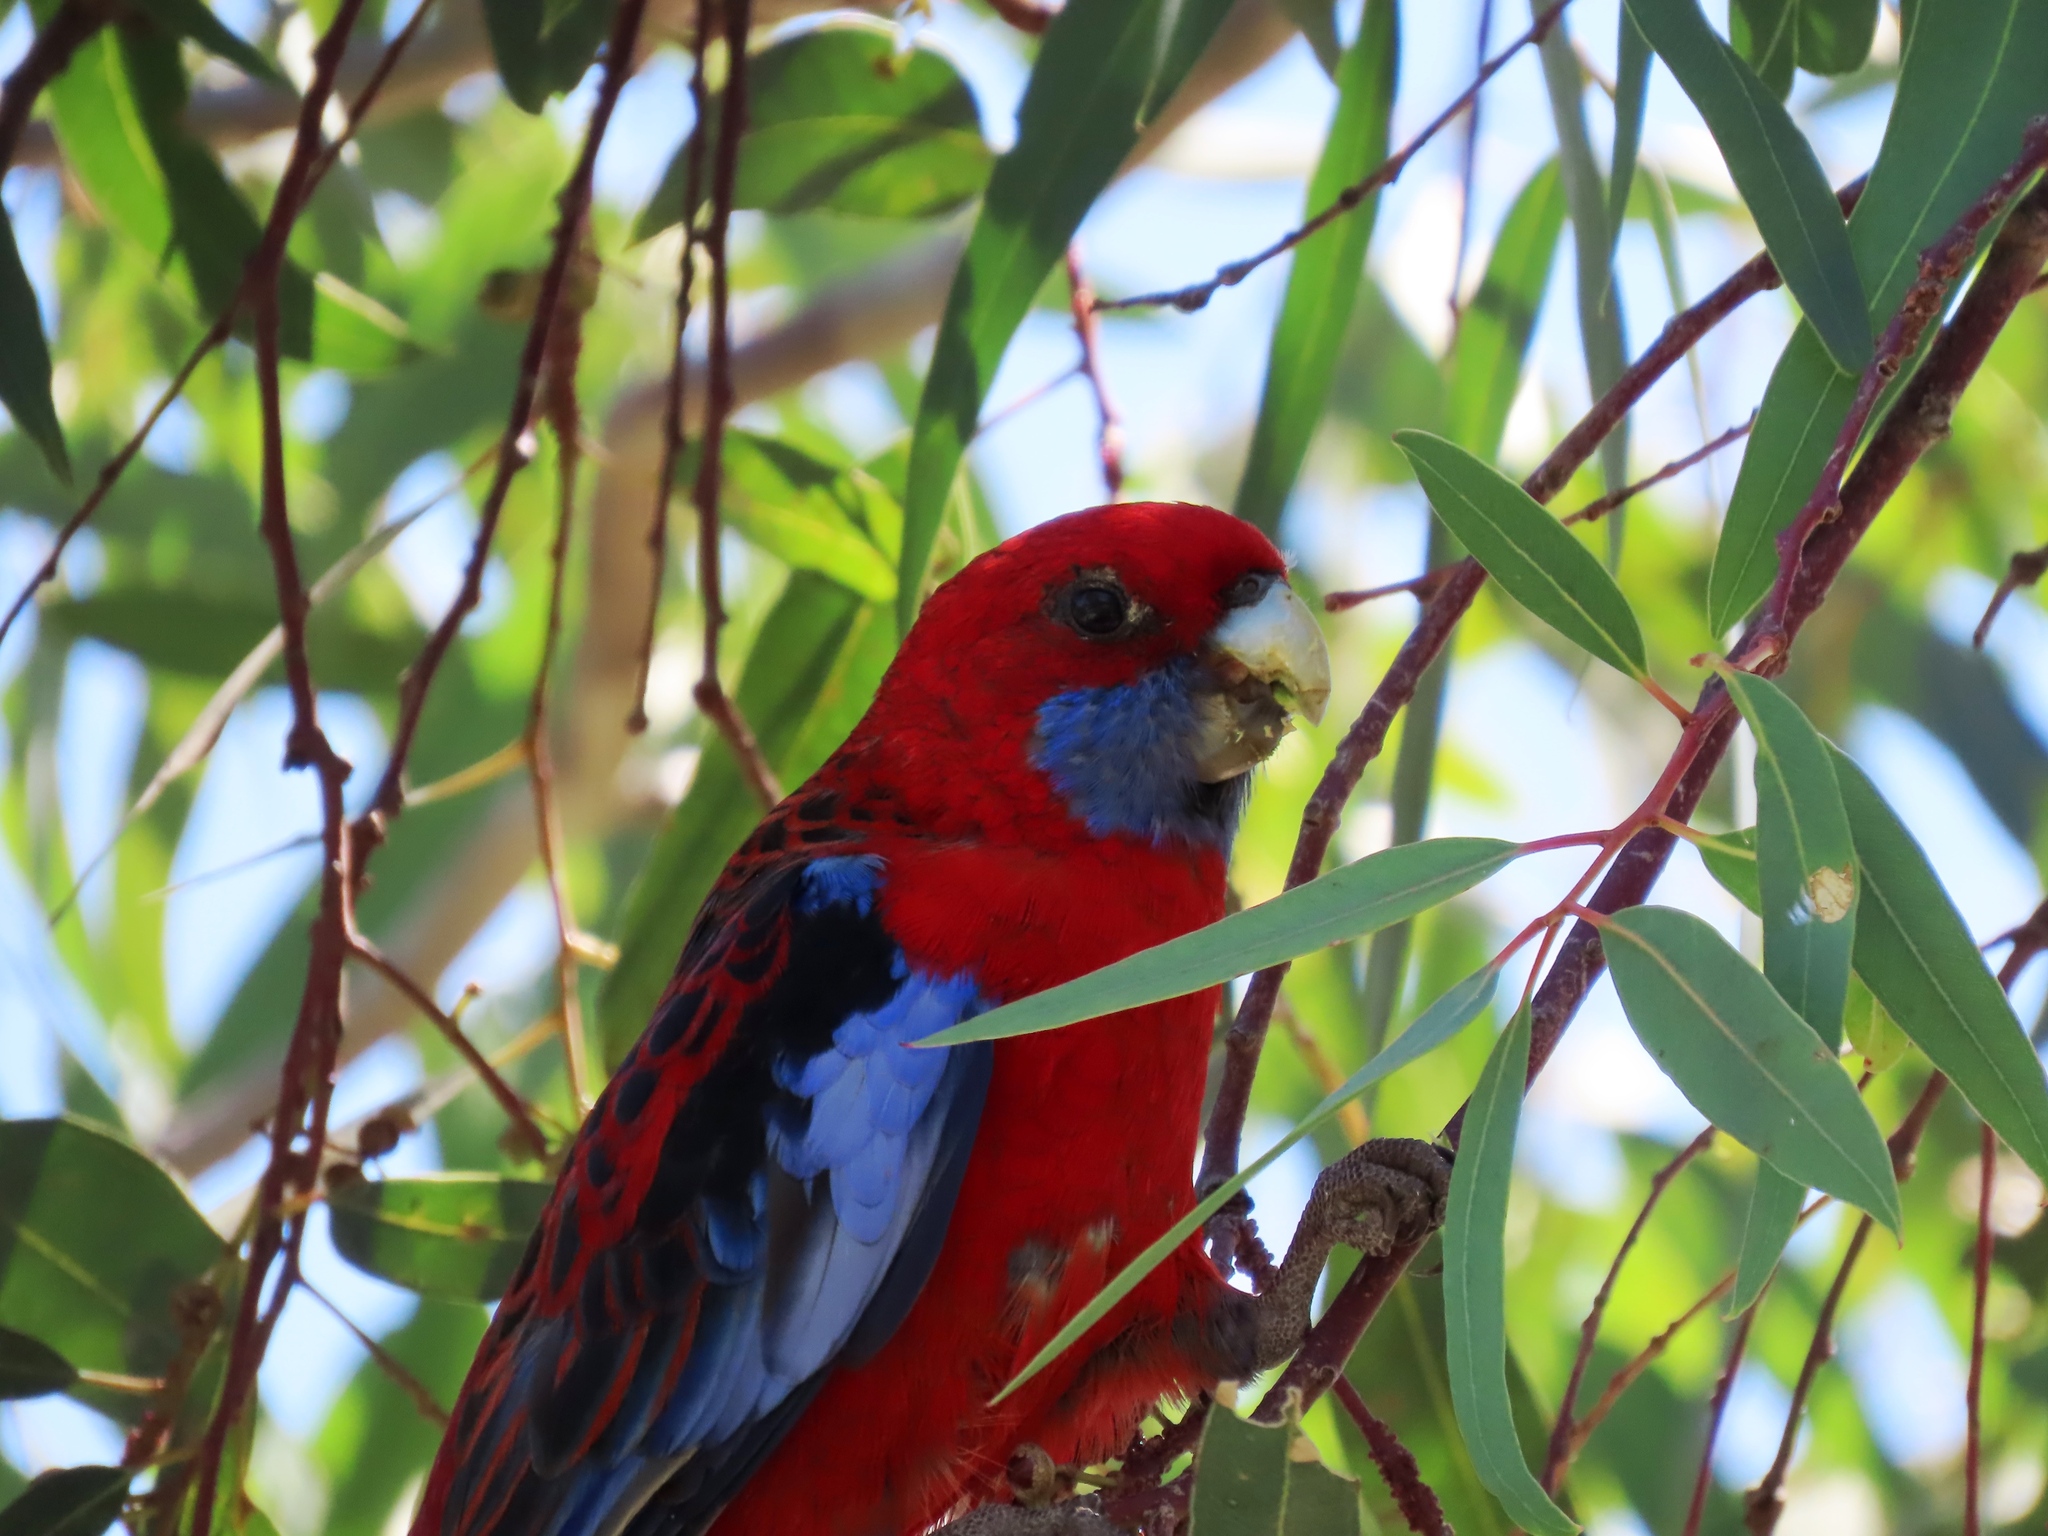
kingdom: Animalia
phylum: Chordata
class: Aves
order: Psittaciformes
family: Psittacidae
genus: Platycercus
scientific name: Platycercus elegans
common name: Crimson rosella
